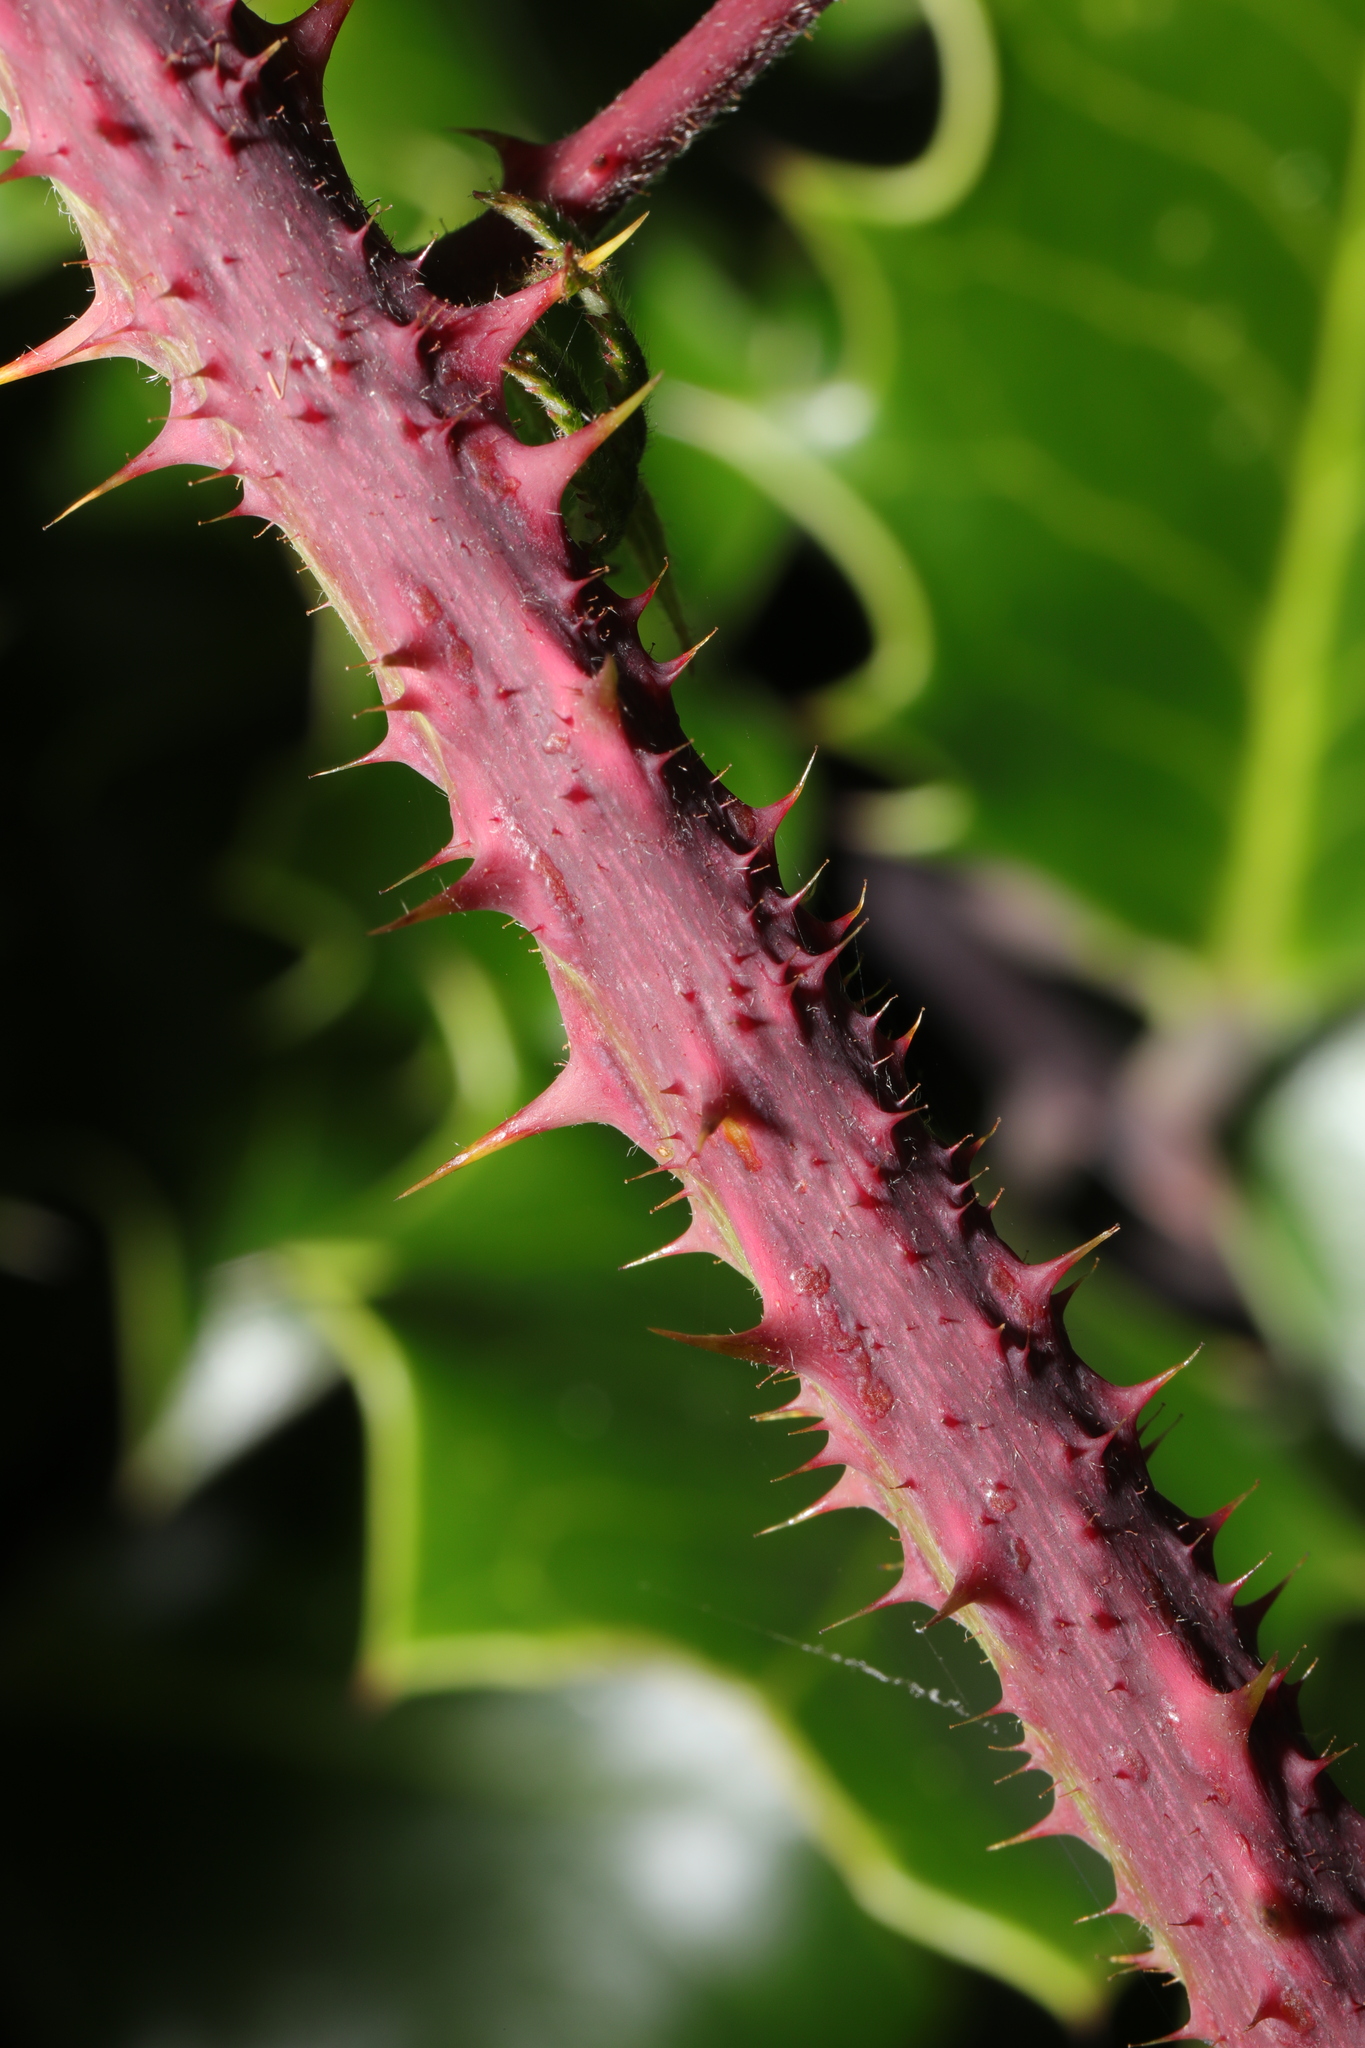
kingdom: Plantae
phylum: Tracheophyta
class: Magnoliopsida
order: Rosales
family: Rosaceae
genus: Rubus
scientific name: Rubus horrefactus
